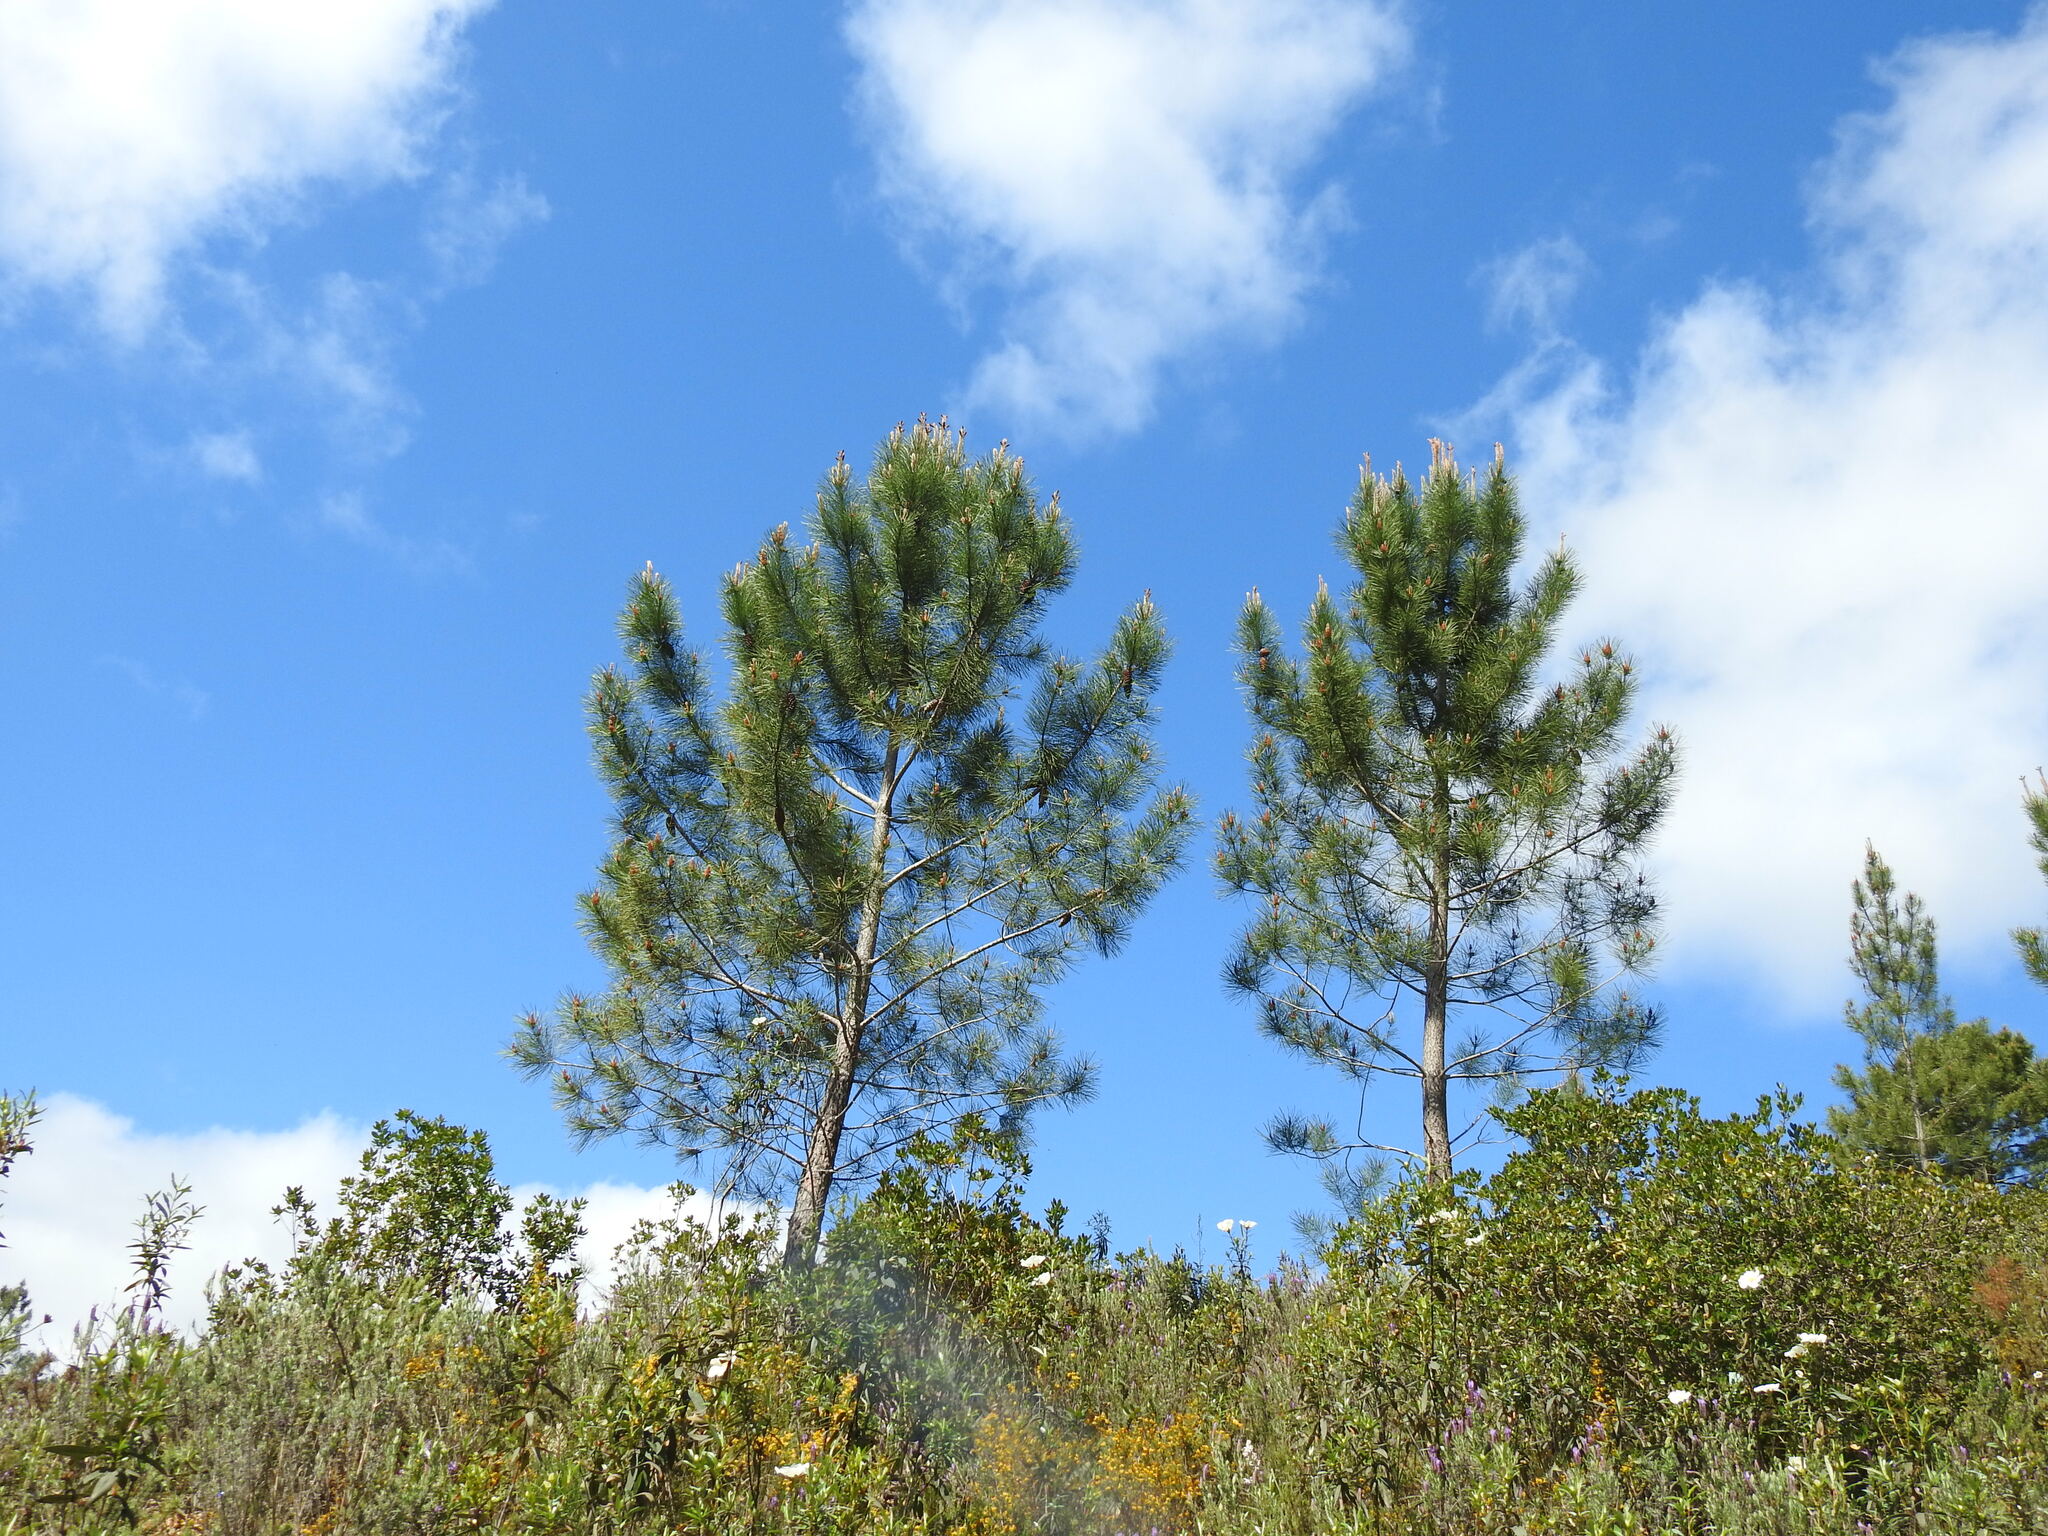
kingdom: Plantae
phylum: Tracheophyta
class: Pinopsida
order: Pinales
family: Pinaceae
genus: Pinus
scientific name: Pinus pinaster
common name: Maritime pine
